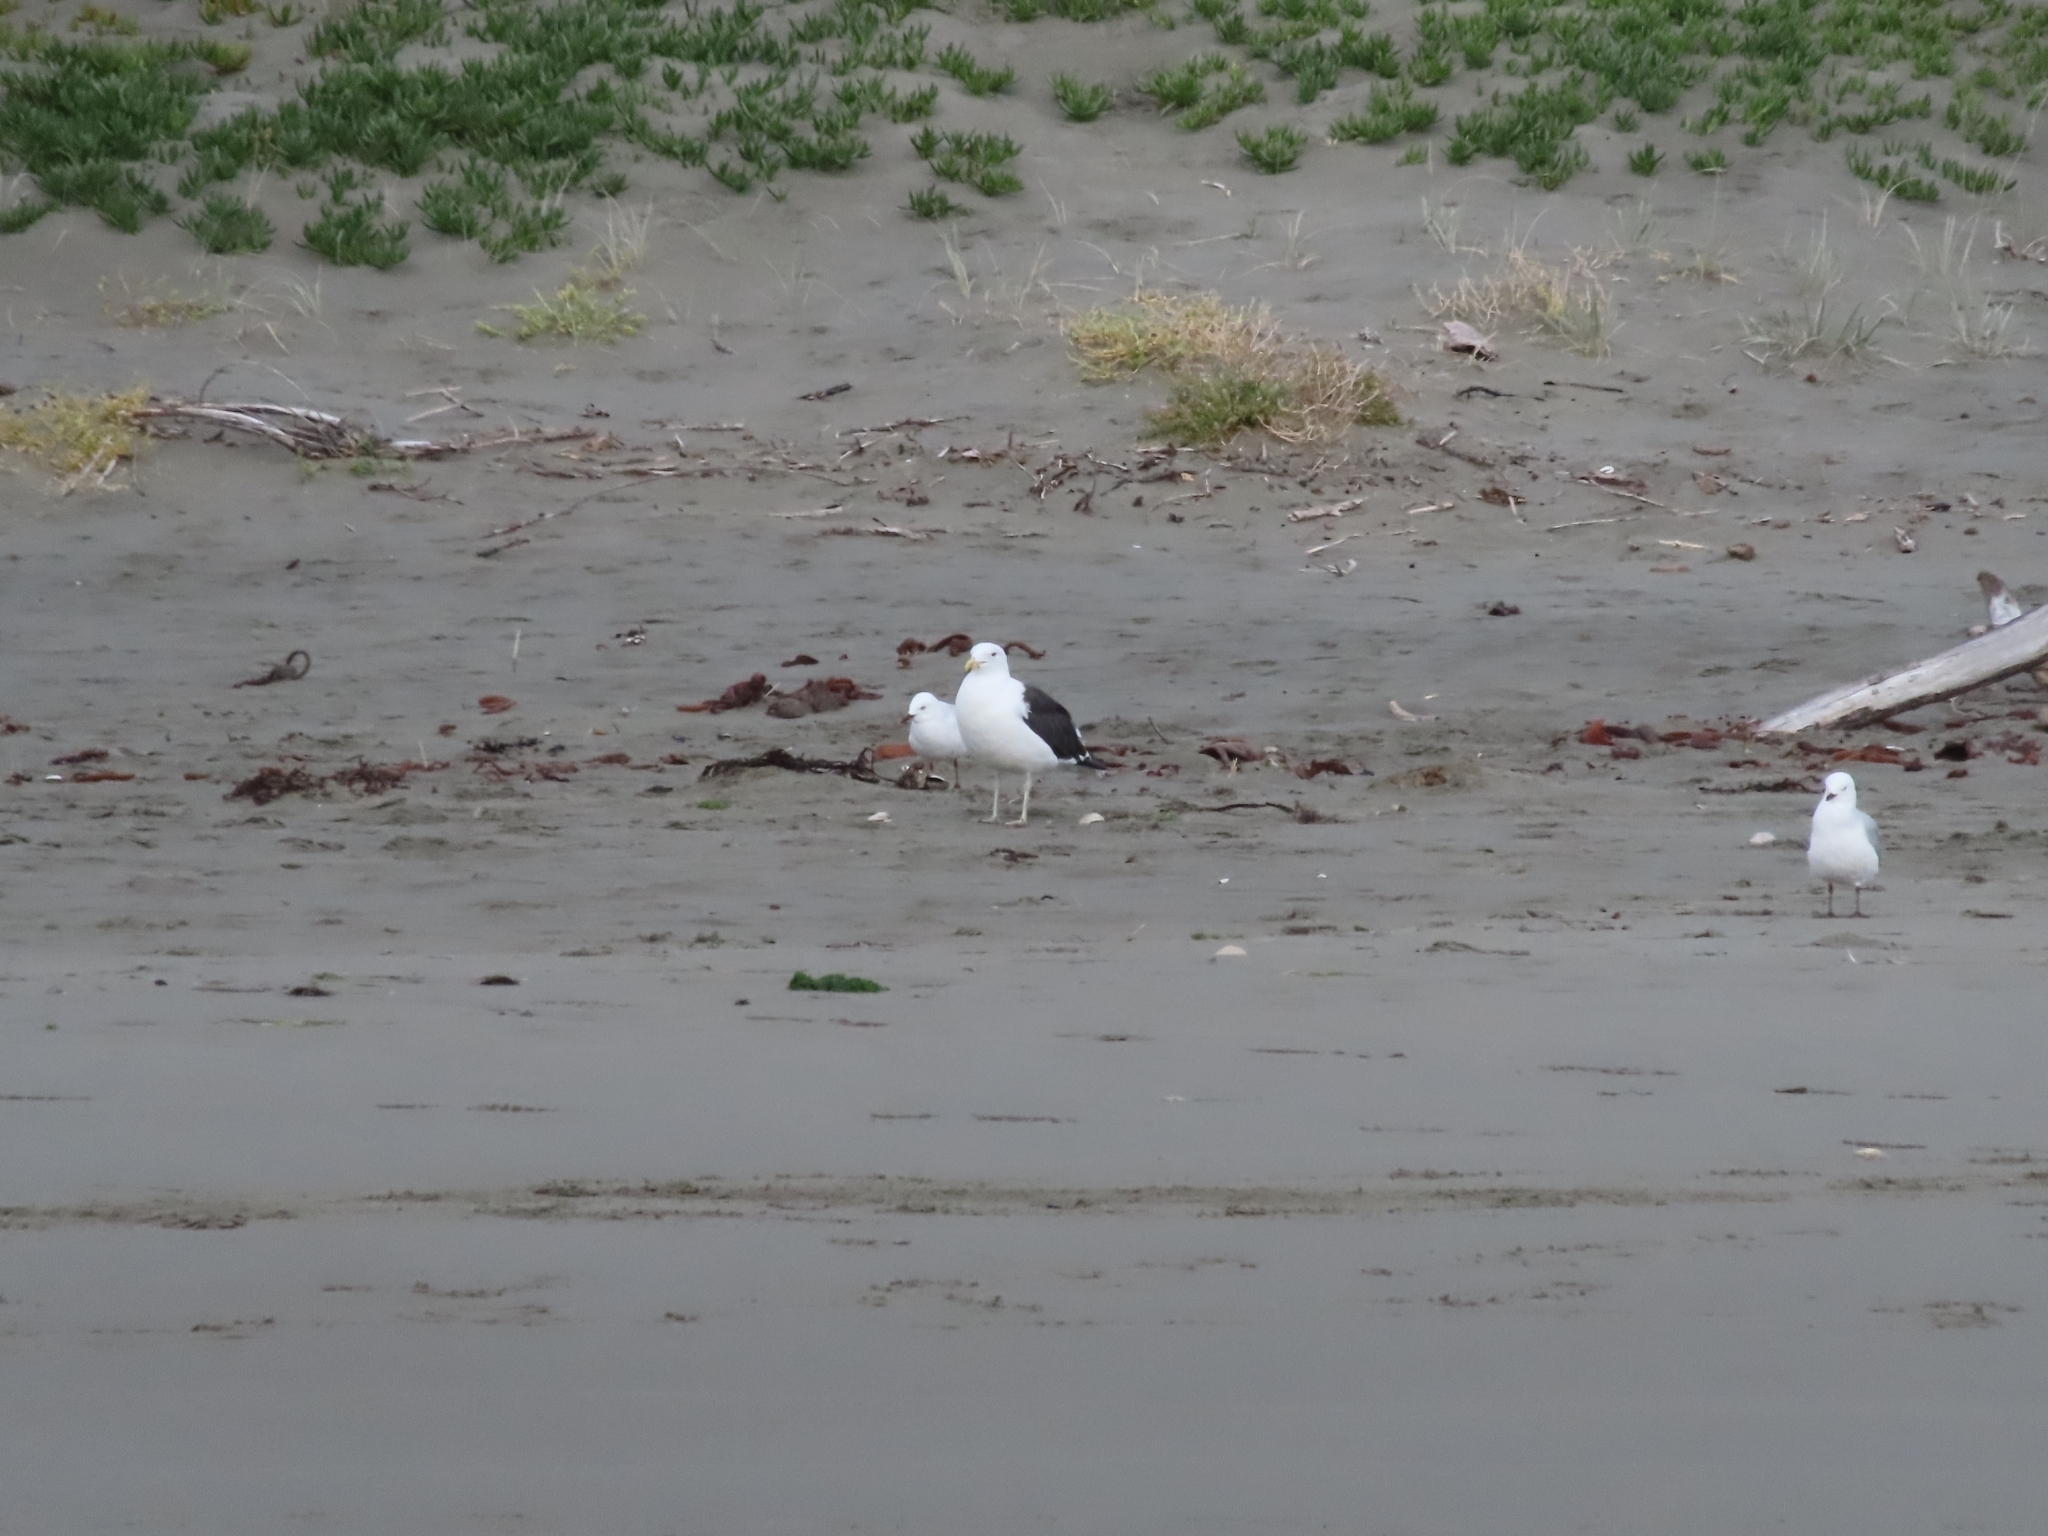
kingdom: Animalia
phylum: Chordata
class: Aves
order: Charadriiformes
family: Laridae
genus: Larus
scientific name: Larus dominicanus
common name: Kelp gull
